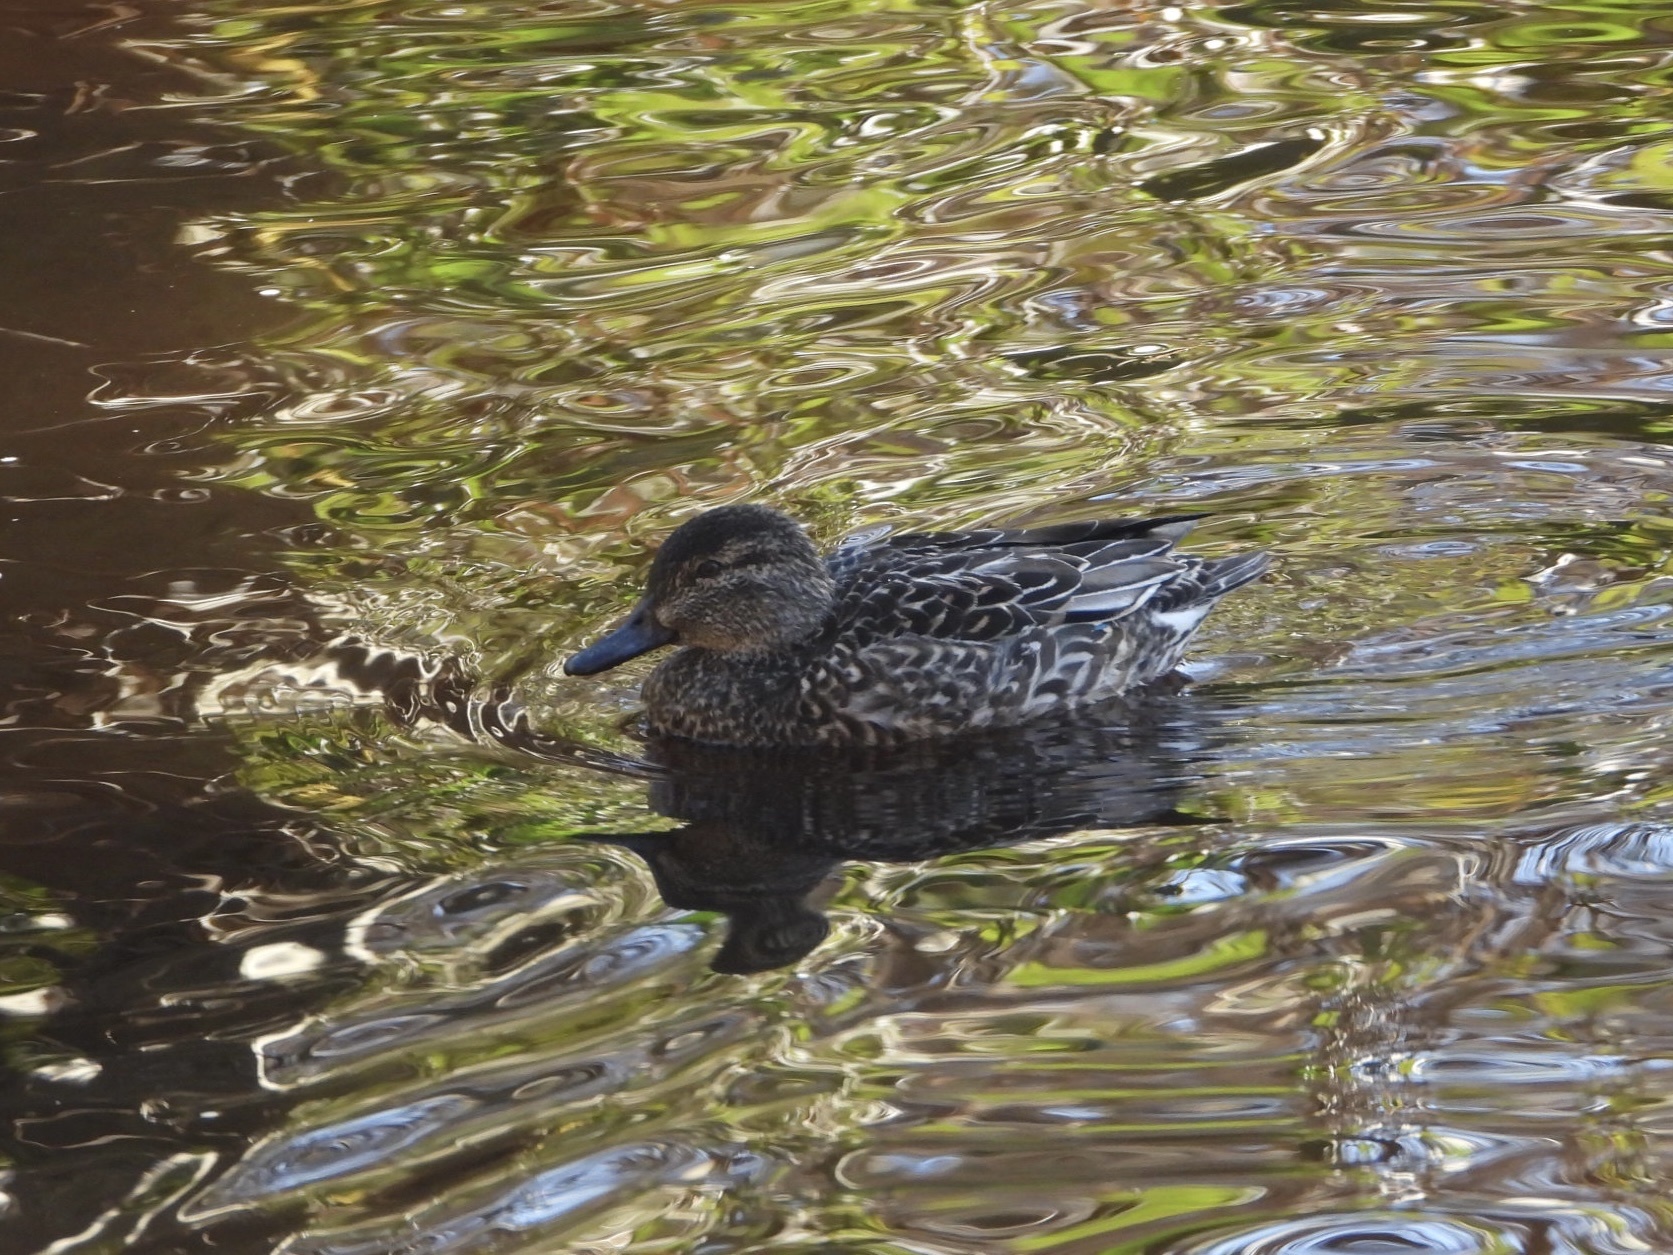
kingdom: Animalia
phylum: Chordata
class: Aves
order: Anseriformes
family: Anatidae
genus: Anas
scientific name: Anas crecca
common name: Eurasian teal
